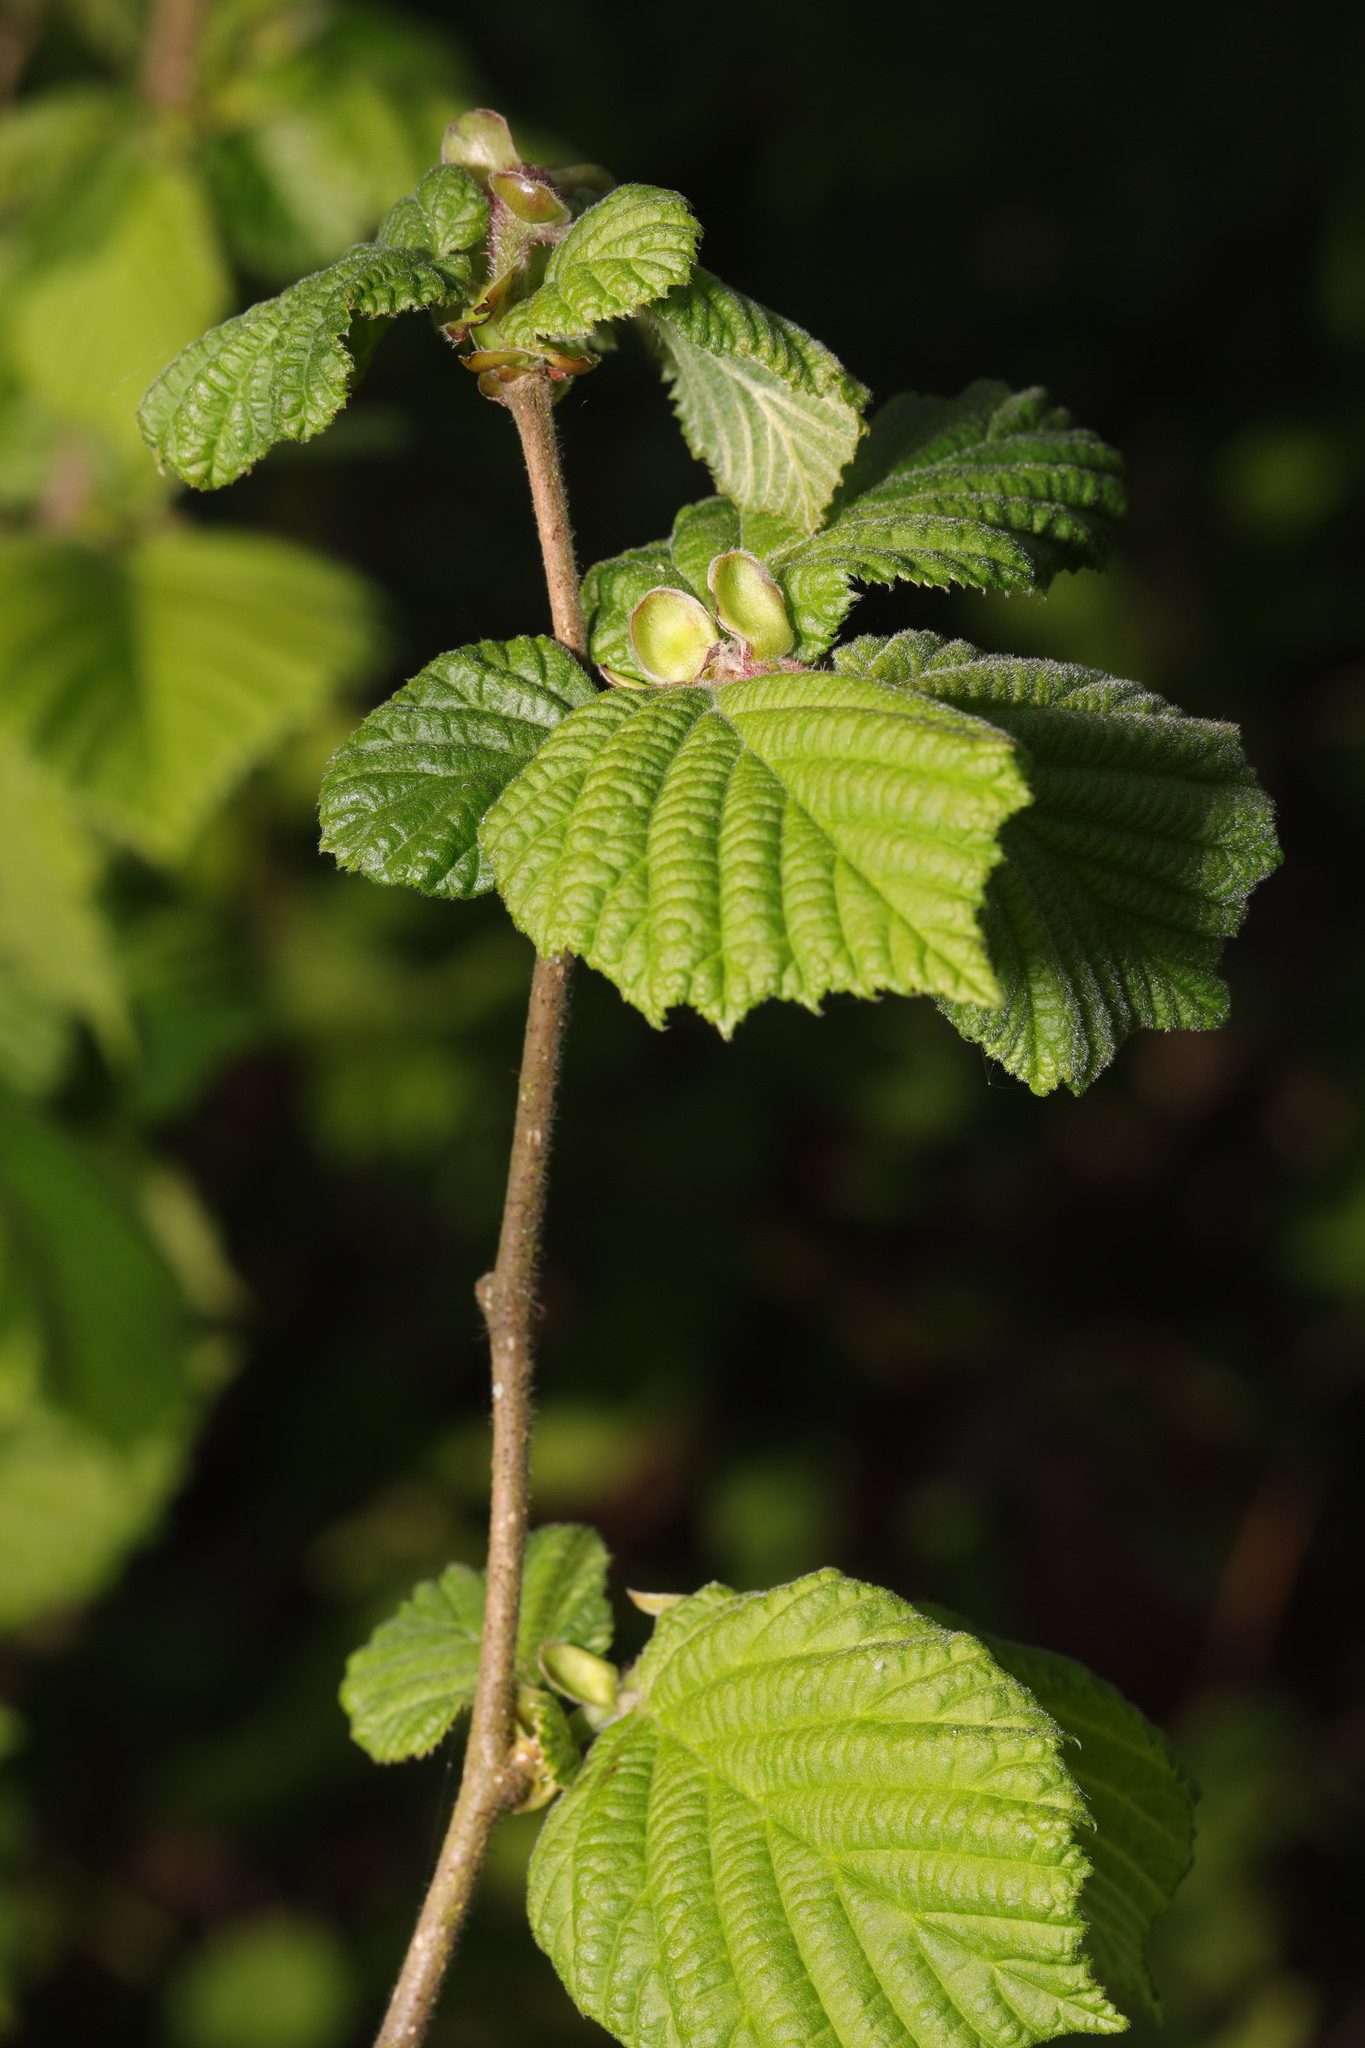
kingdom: Plantae
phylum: Tracheophyta
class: Magnoliopsida
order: Fagales
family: Betulaceae
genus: Corylus
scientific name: Corylus avellana
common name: European hazel
